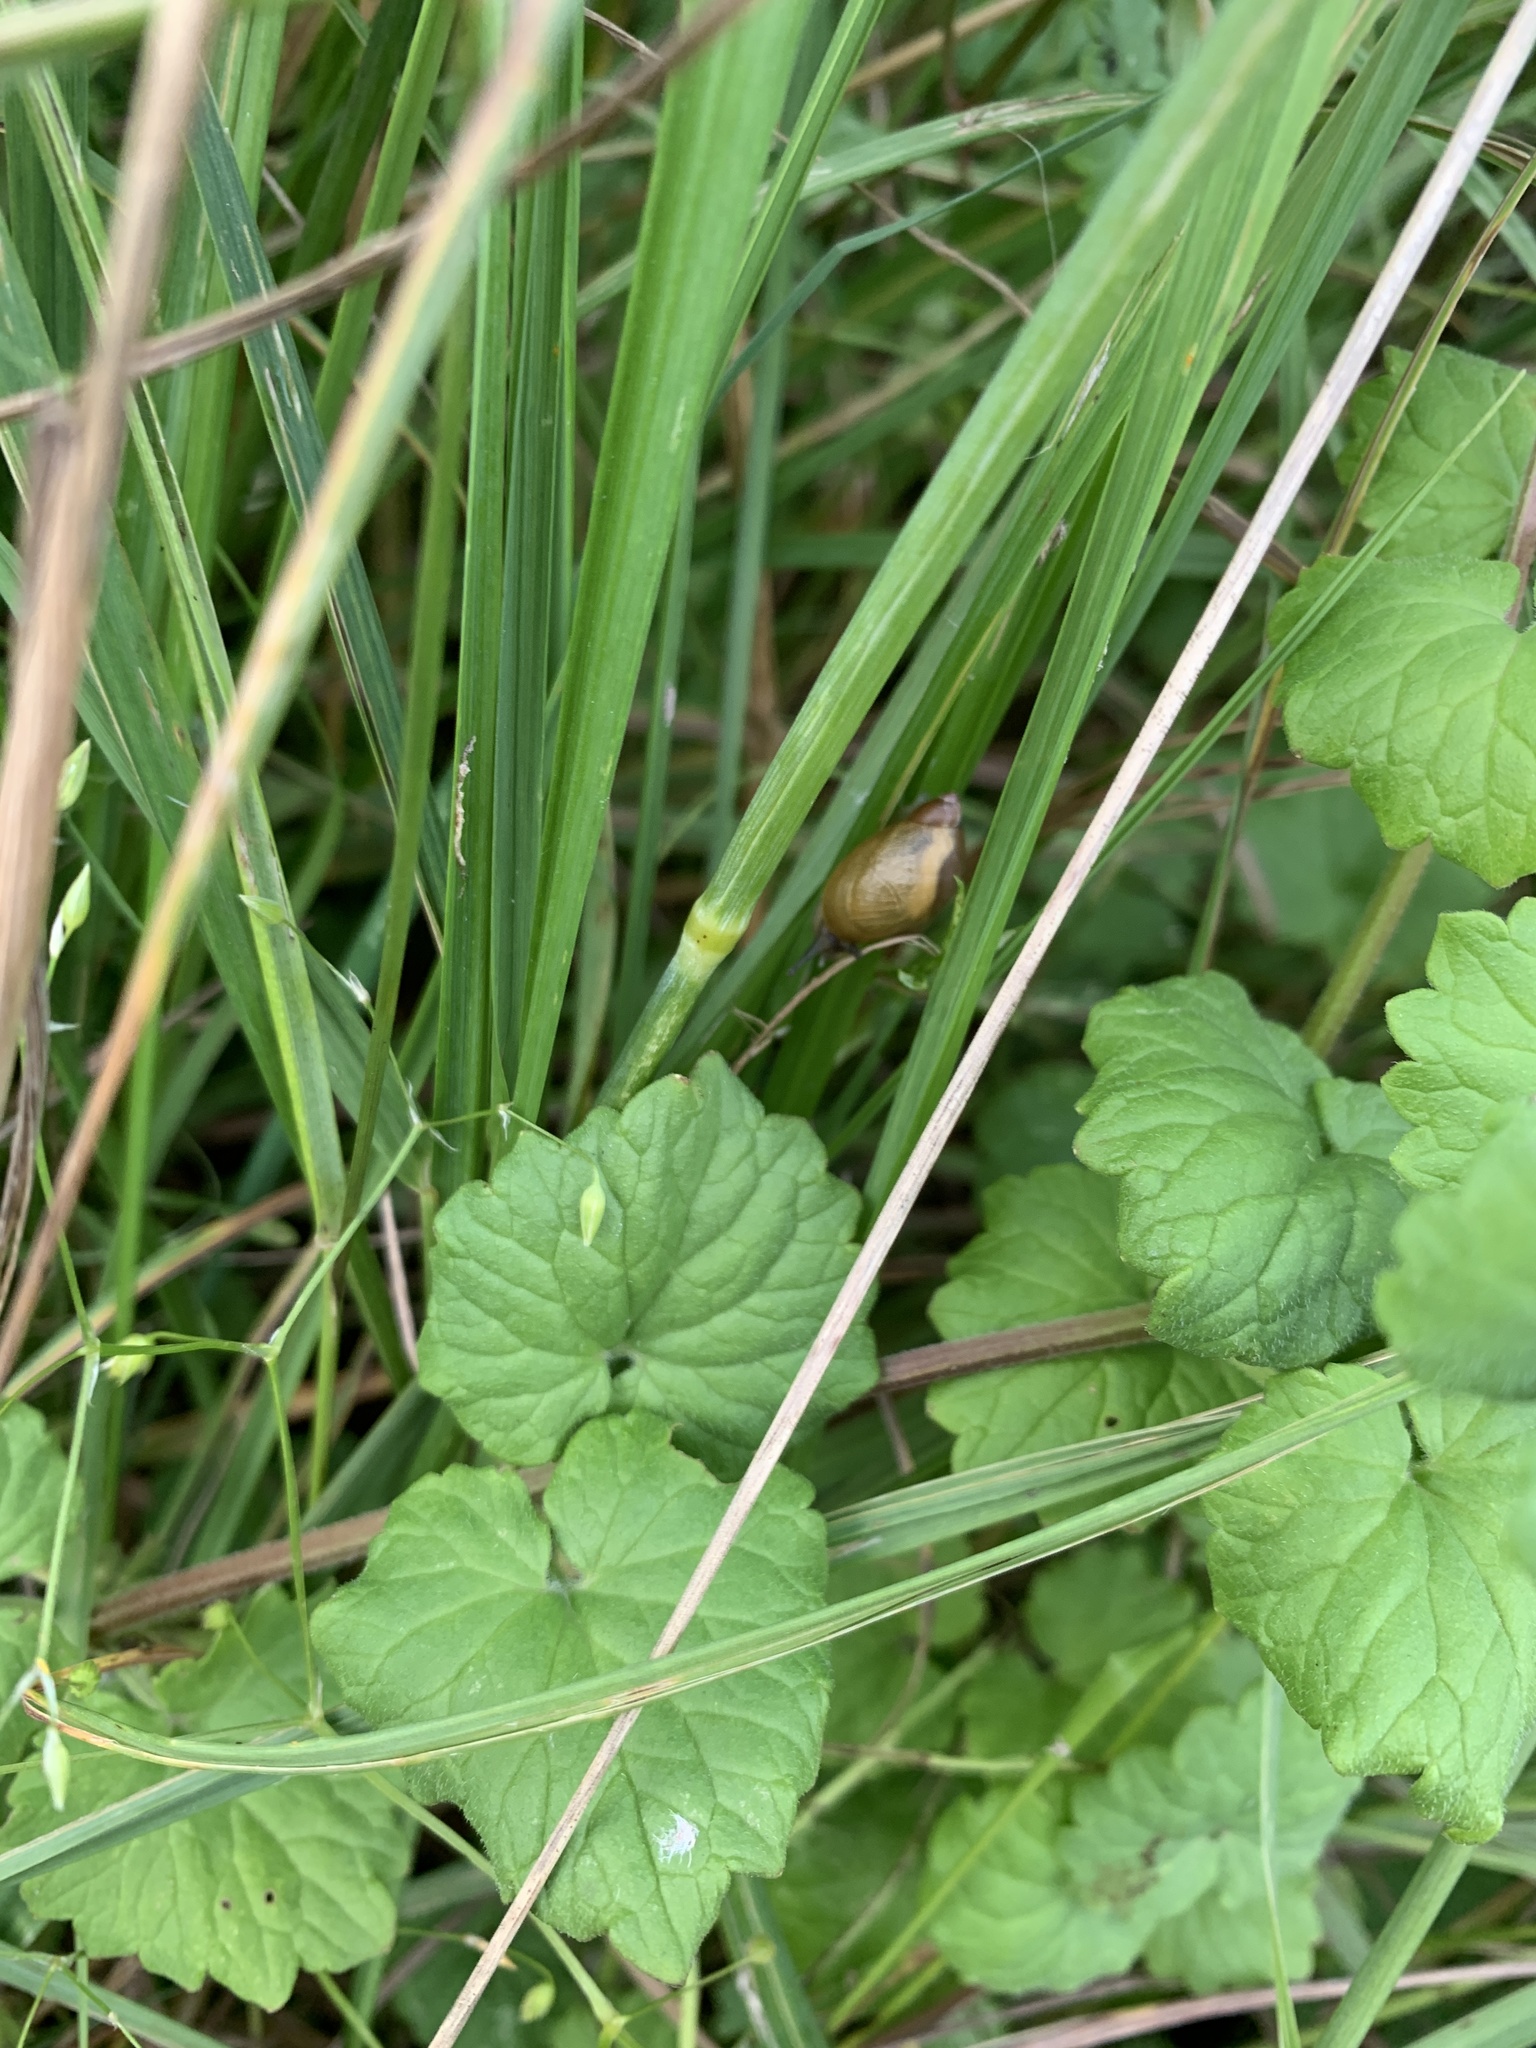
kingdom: Plantae
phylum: Tracheophyta
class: Magnoliopsida
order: Lamiales
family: Lamiaceae
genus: Glechoma
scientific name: Glechoma hederacea
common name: Ground ivy
